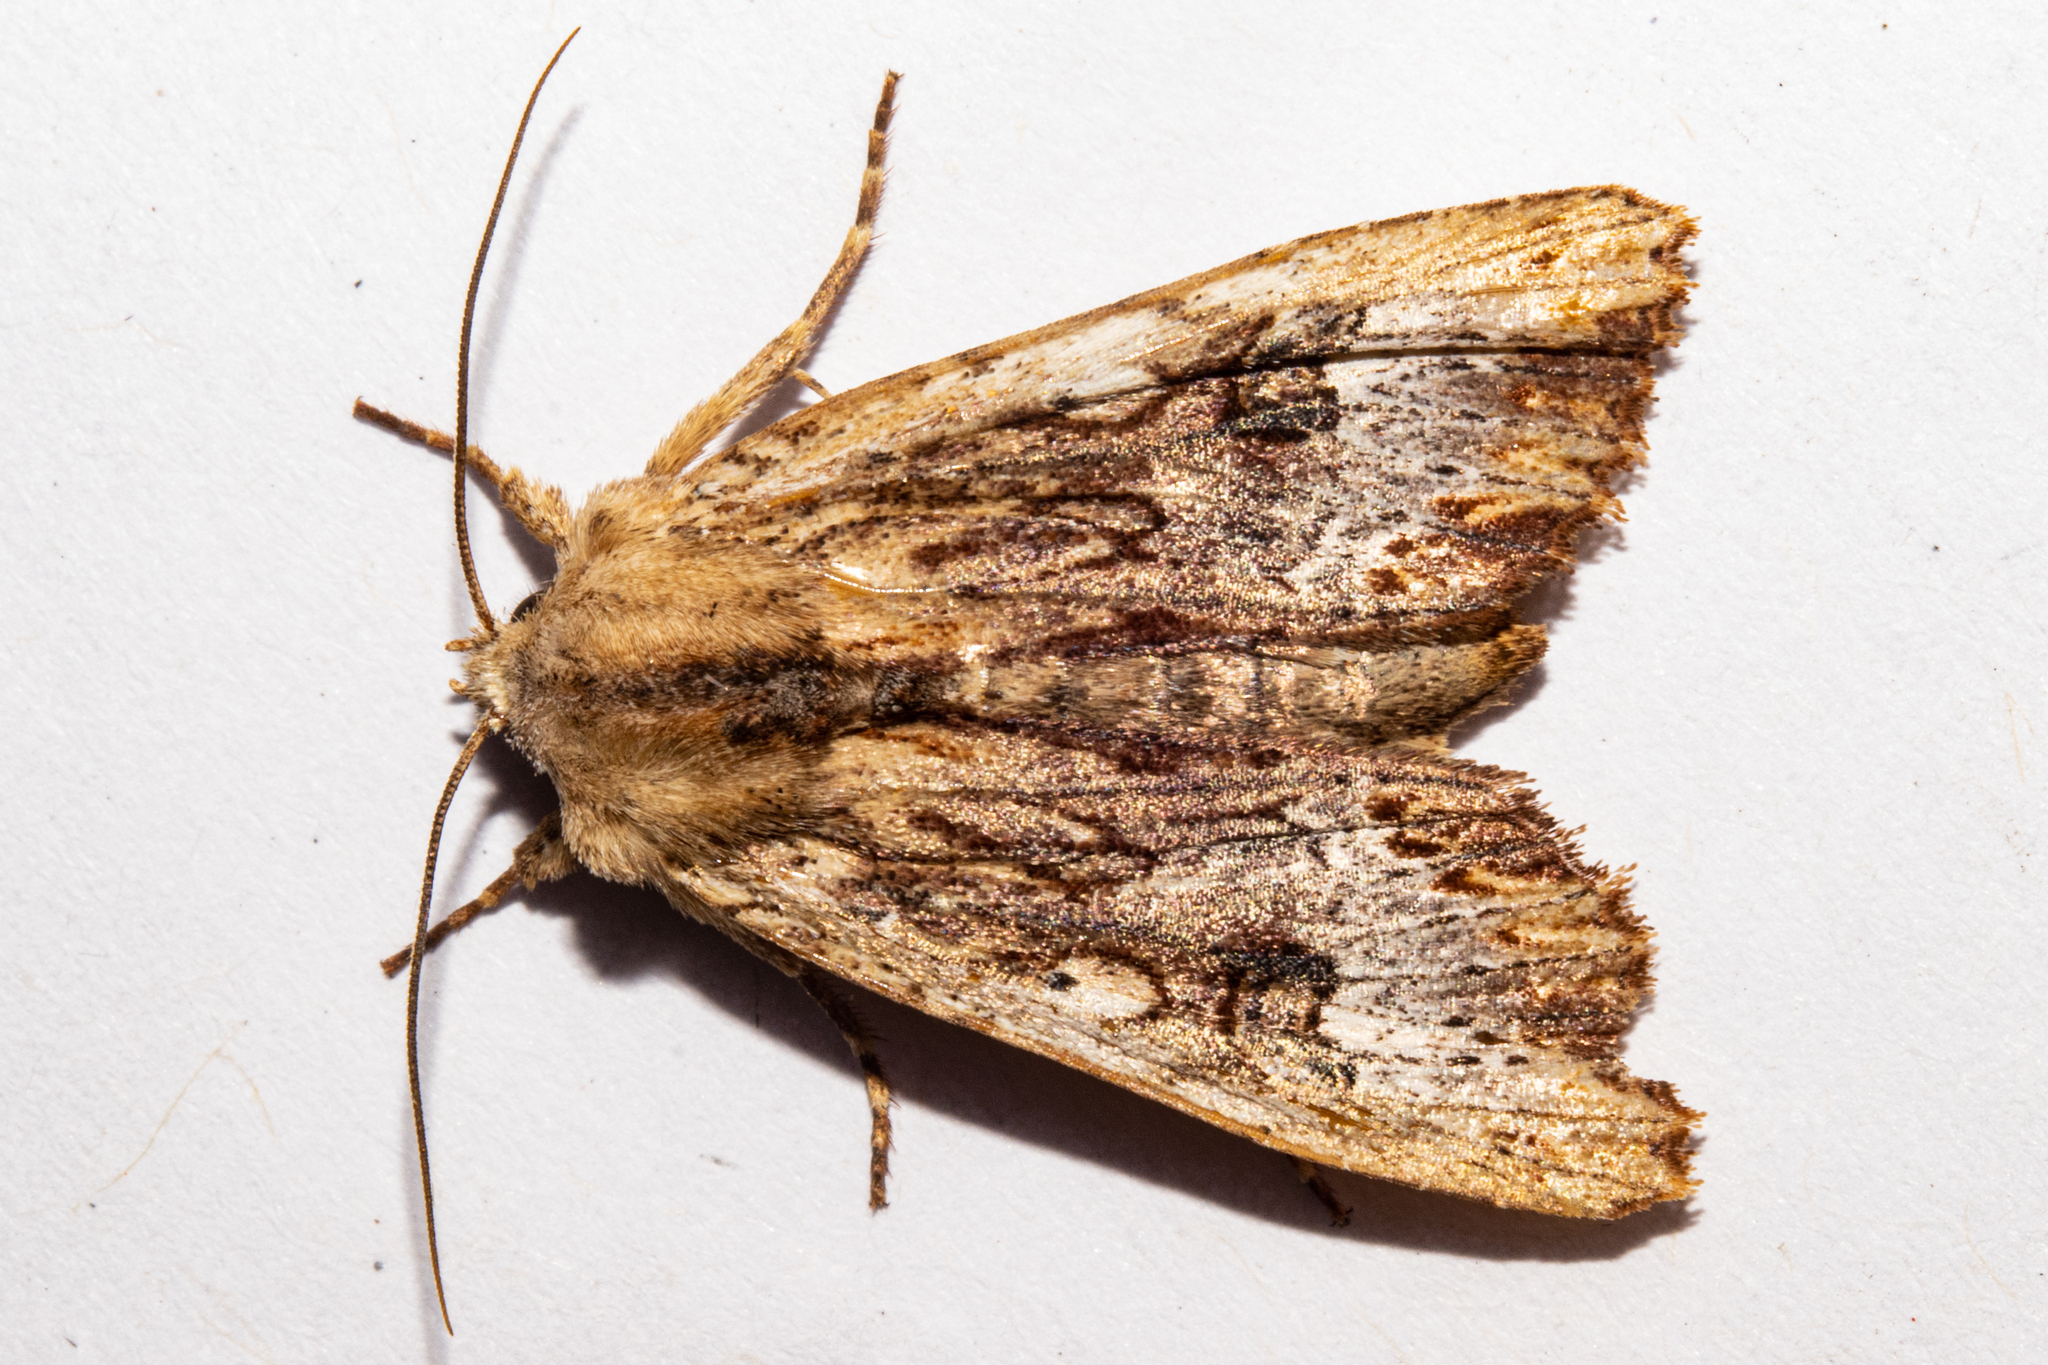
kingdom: Animalia
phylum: Arthropoda
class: Insecta
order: Lepidoptera
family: Noctuidae
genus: Ichneutica
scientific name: Ichneutica
